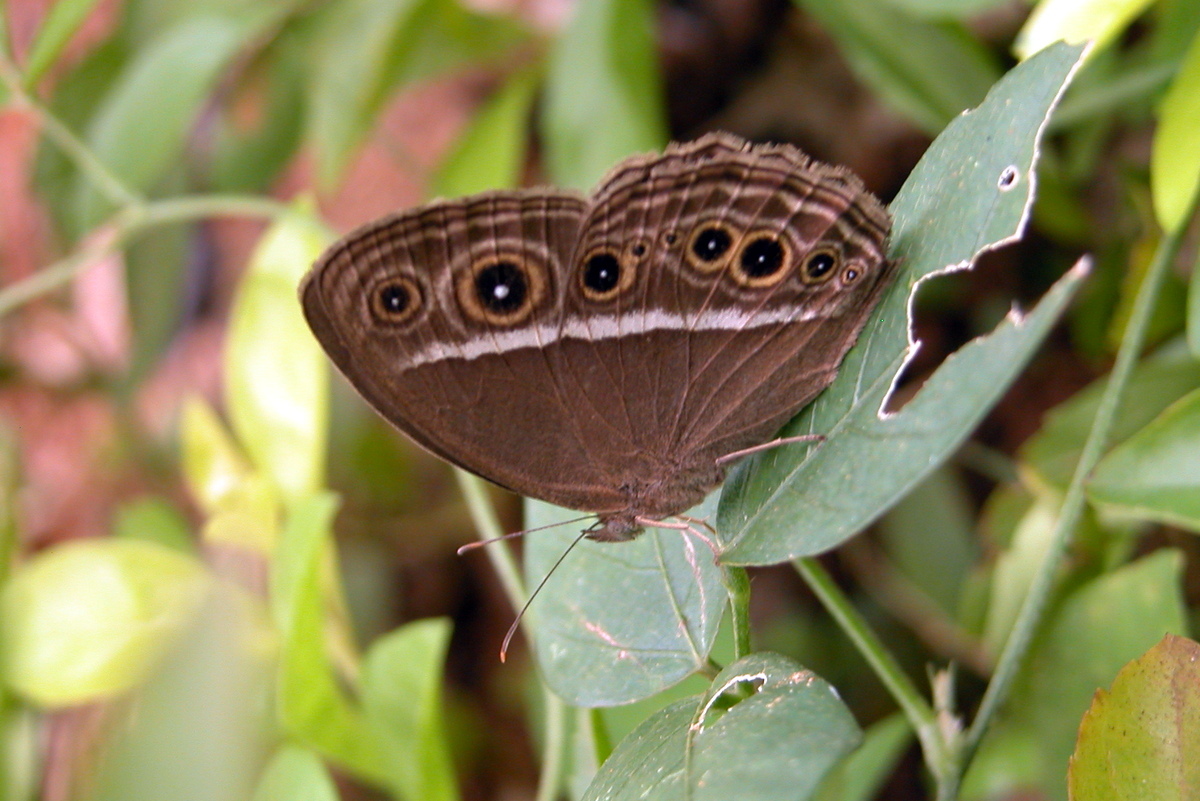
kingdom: Animalia
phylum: Arthropoda
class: Insecta
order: Lepidoptera
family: Nymphalidae
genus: Mycalesis
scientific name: Mycalesis mineus
